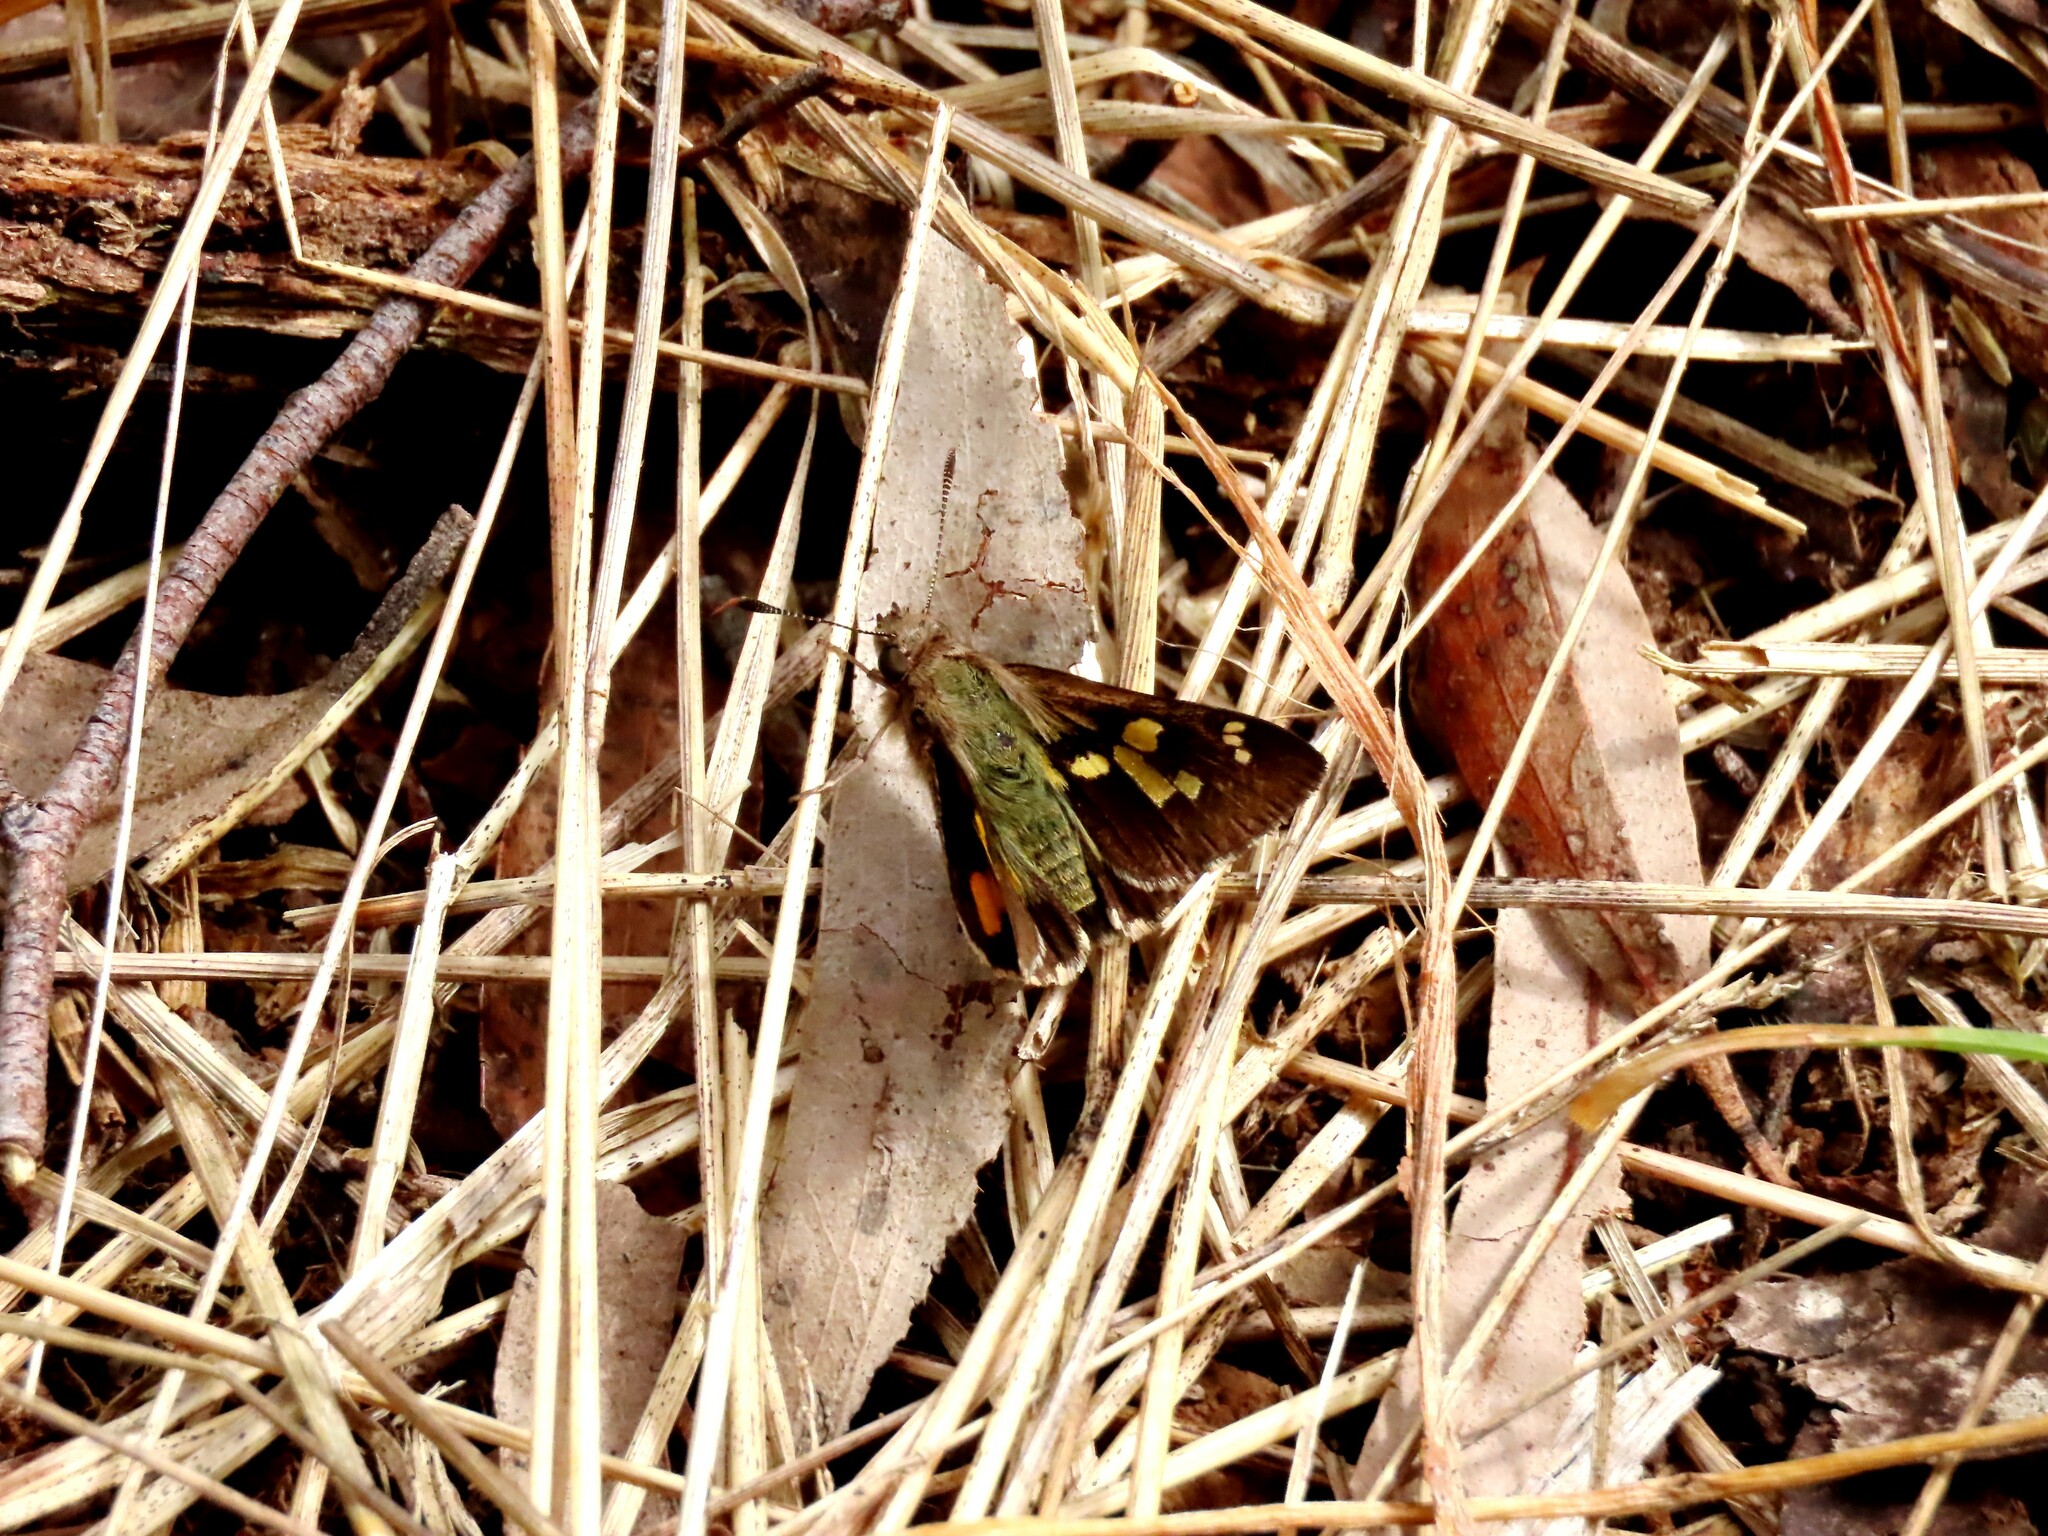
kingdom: Animalia
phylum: Arthropoda
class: Insecta
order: Lepidoptera
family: Hesperiidae
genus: Trapezites
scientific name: Trapezites phigalioides
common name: Montane ochre
